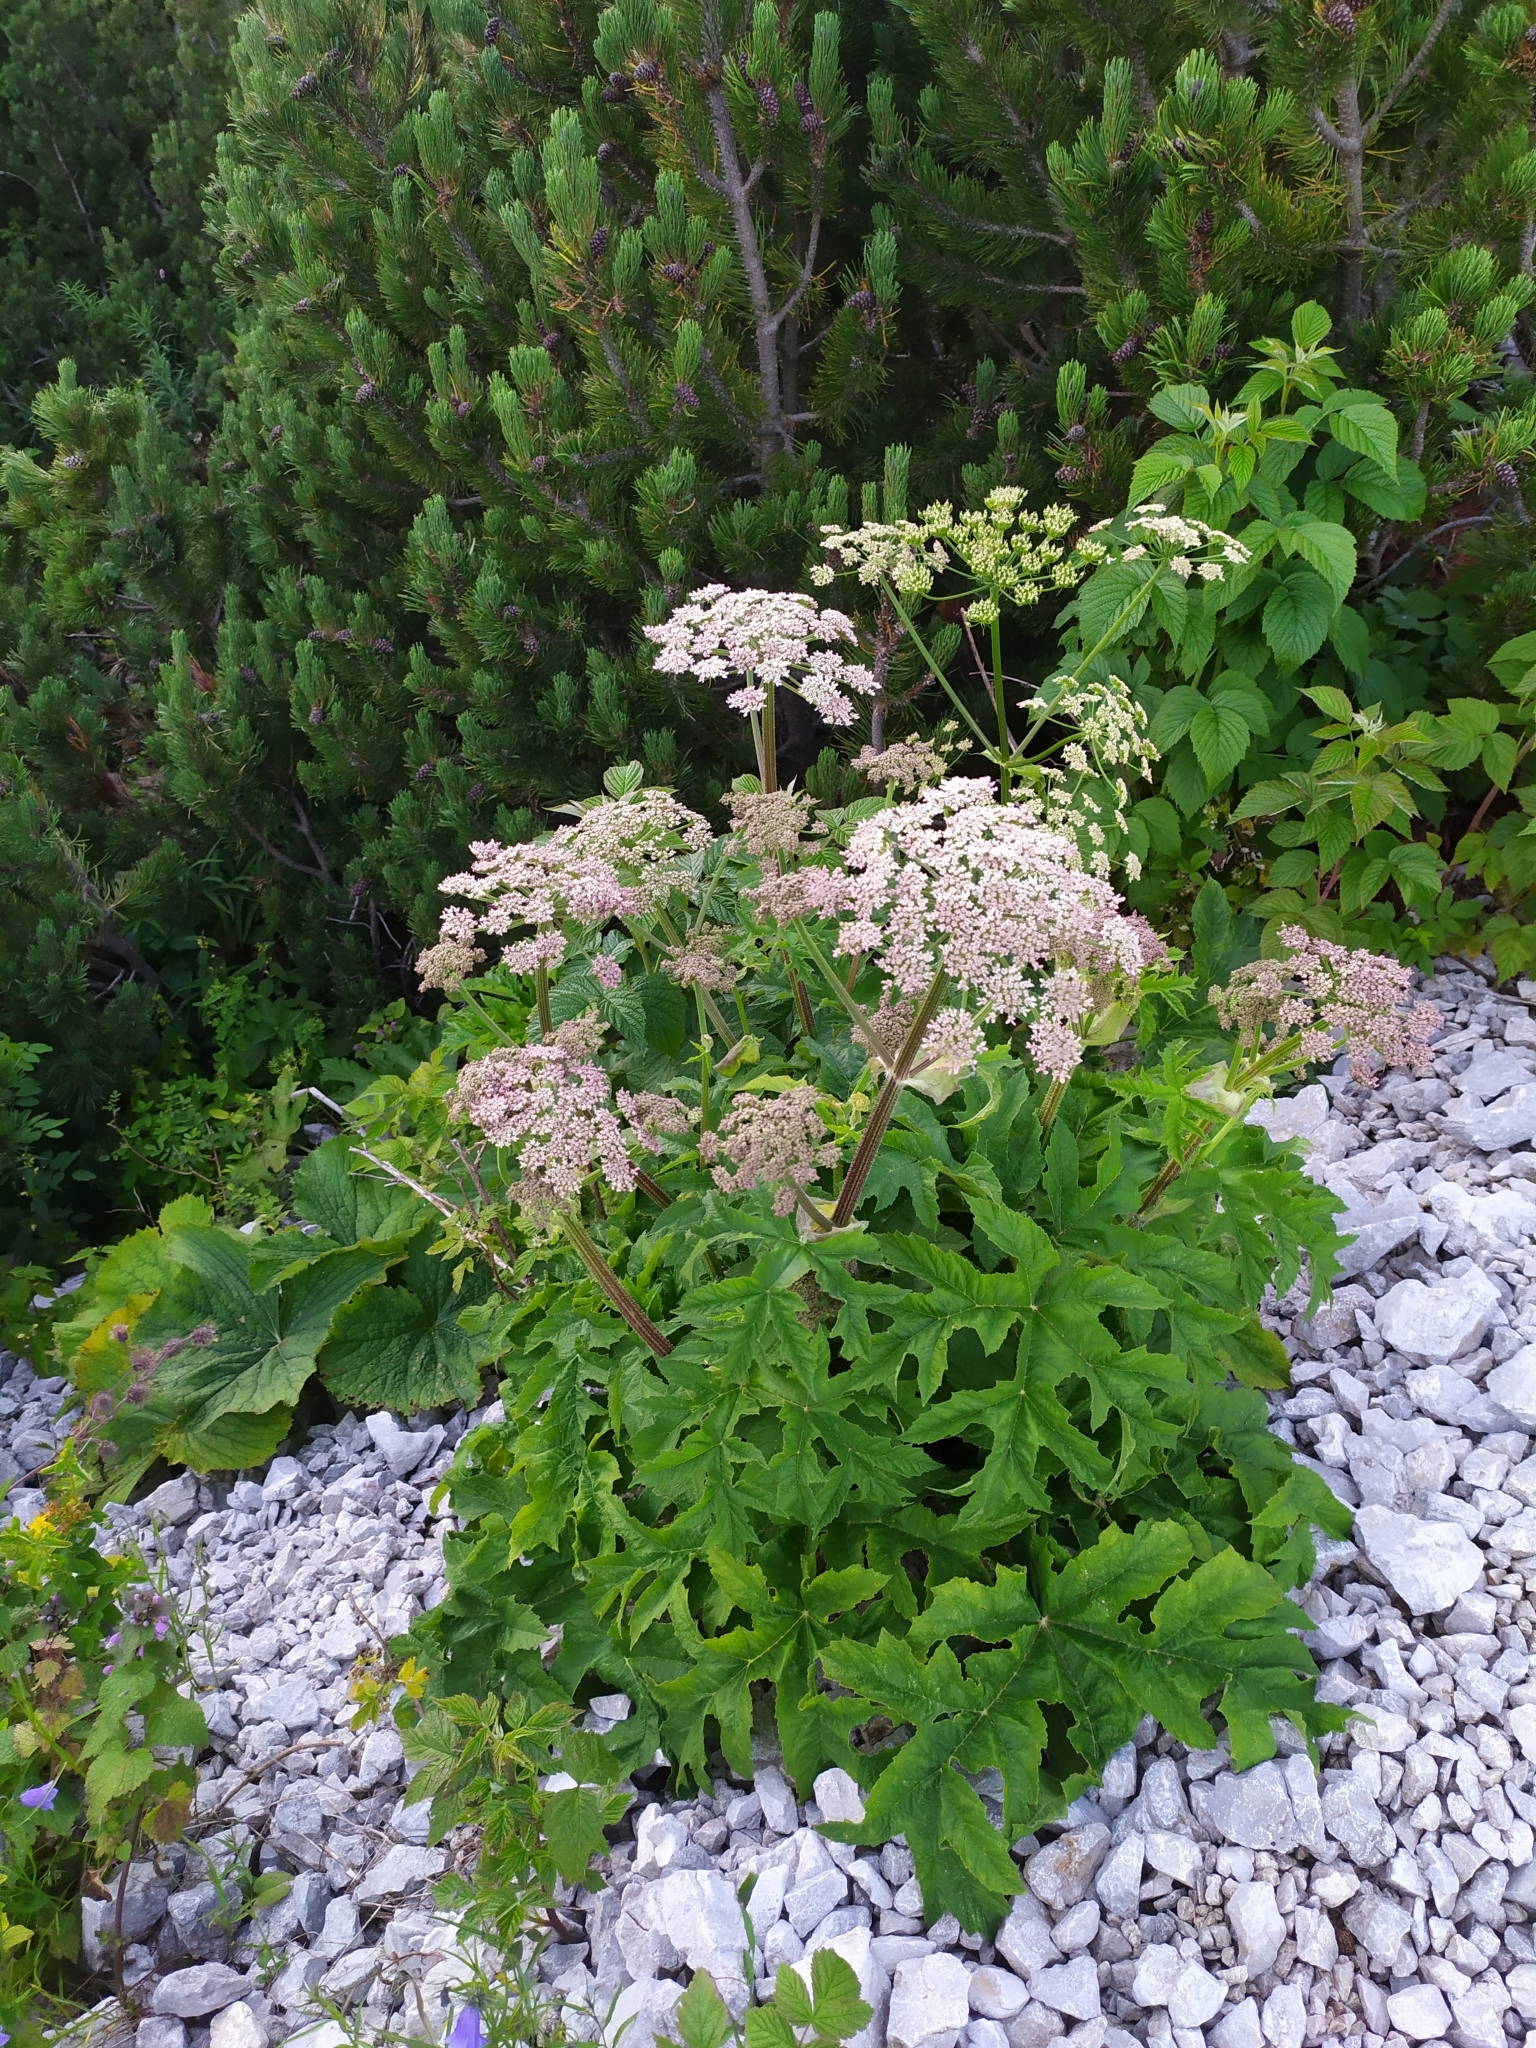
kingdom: Plantae
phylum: Tracheophyta
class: Magnoliopsida
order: Apiales
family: Apiaceae
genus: Heracleum
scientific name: Heracleum sphondylium
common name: Hogweed
